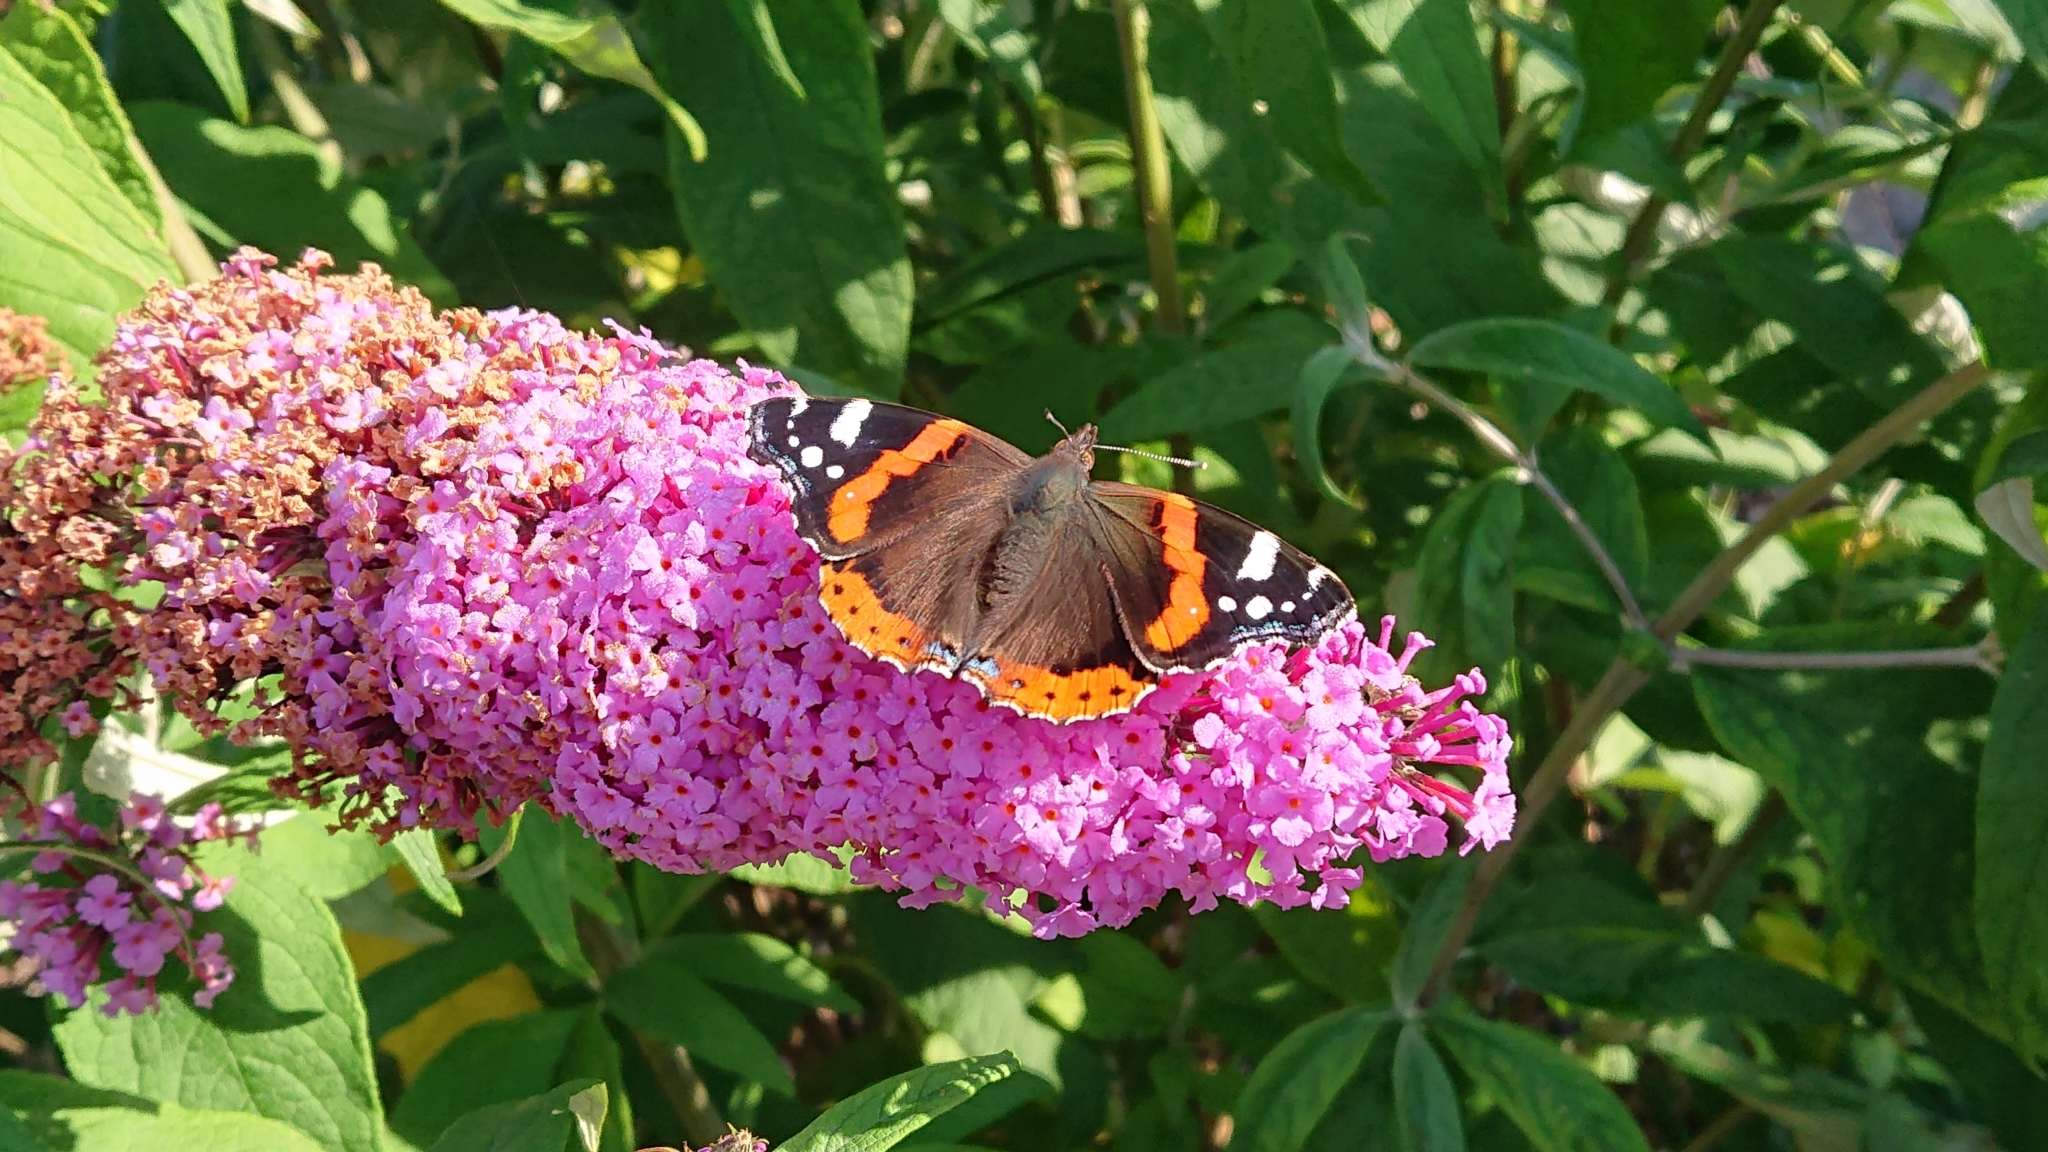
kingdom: Animalia
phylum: Arthropoda
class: Insecta
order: Lepidoptera
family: Nymphalidae
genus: Vanessa
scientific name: Vanessa atalanta
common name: Red admiral
